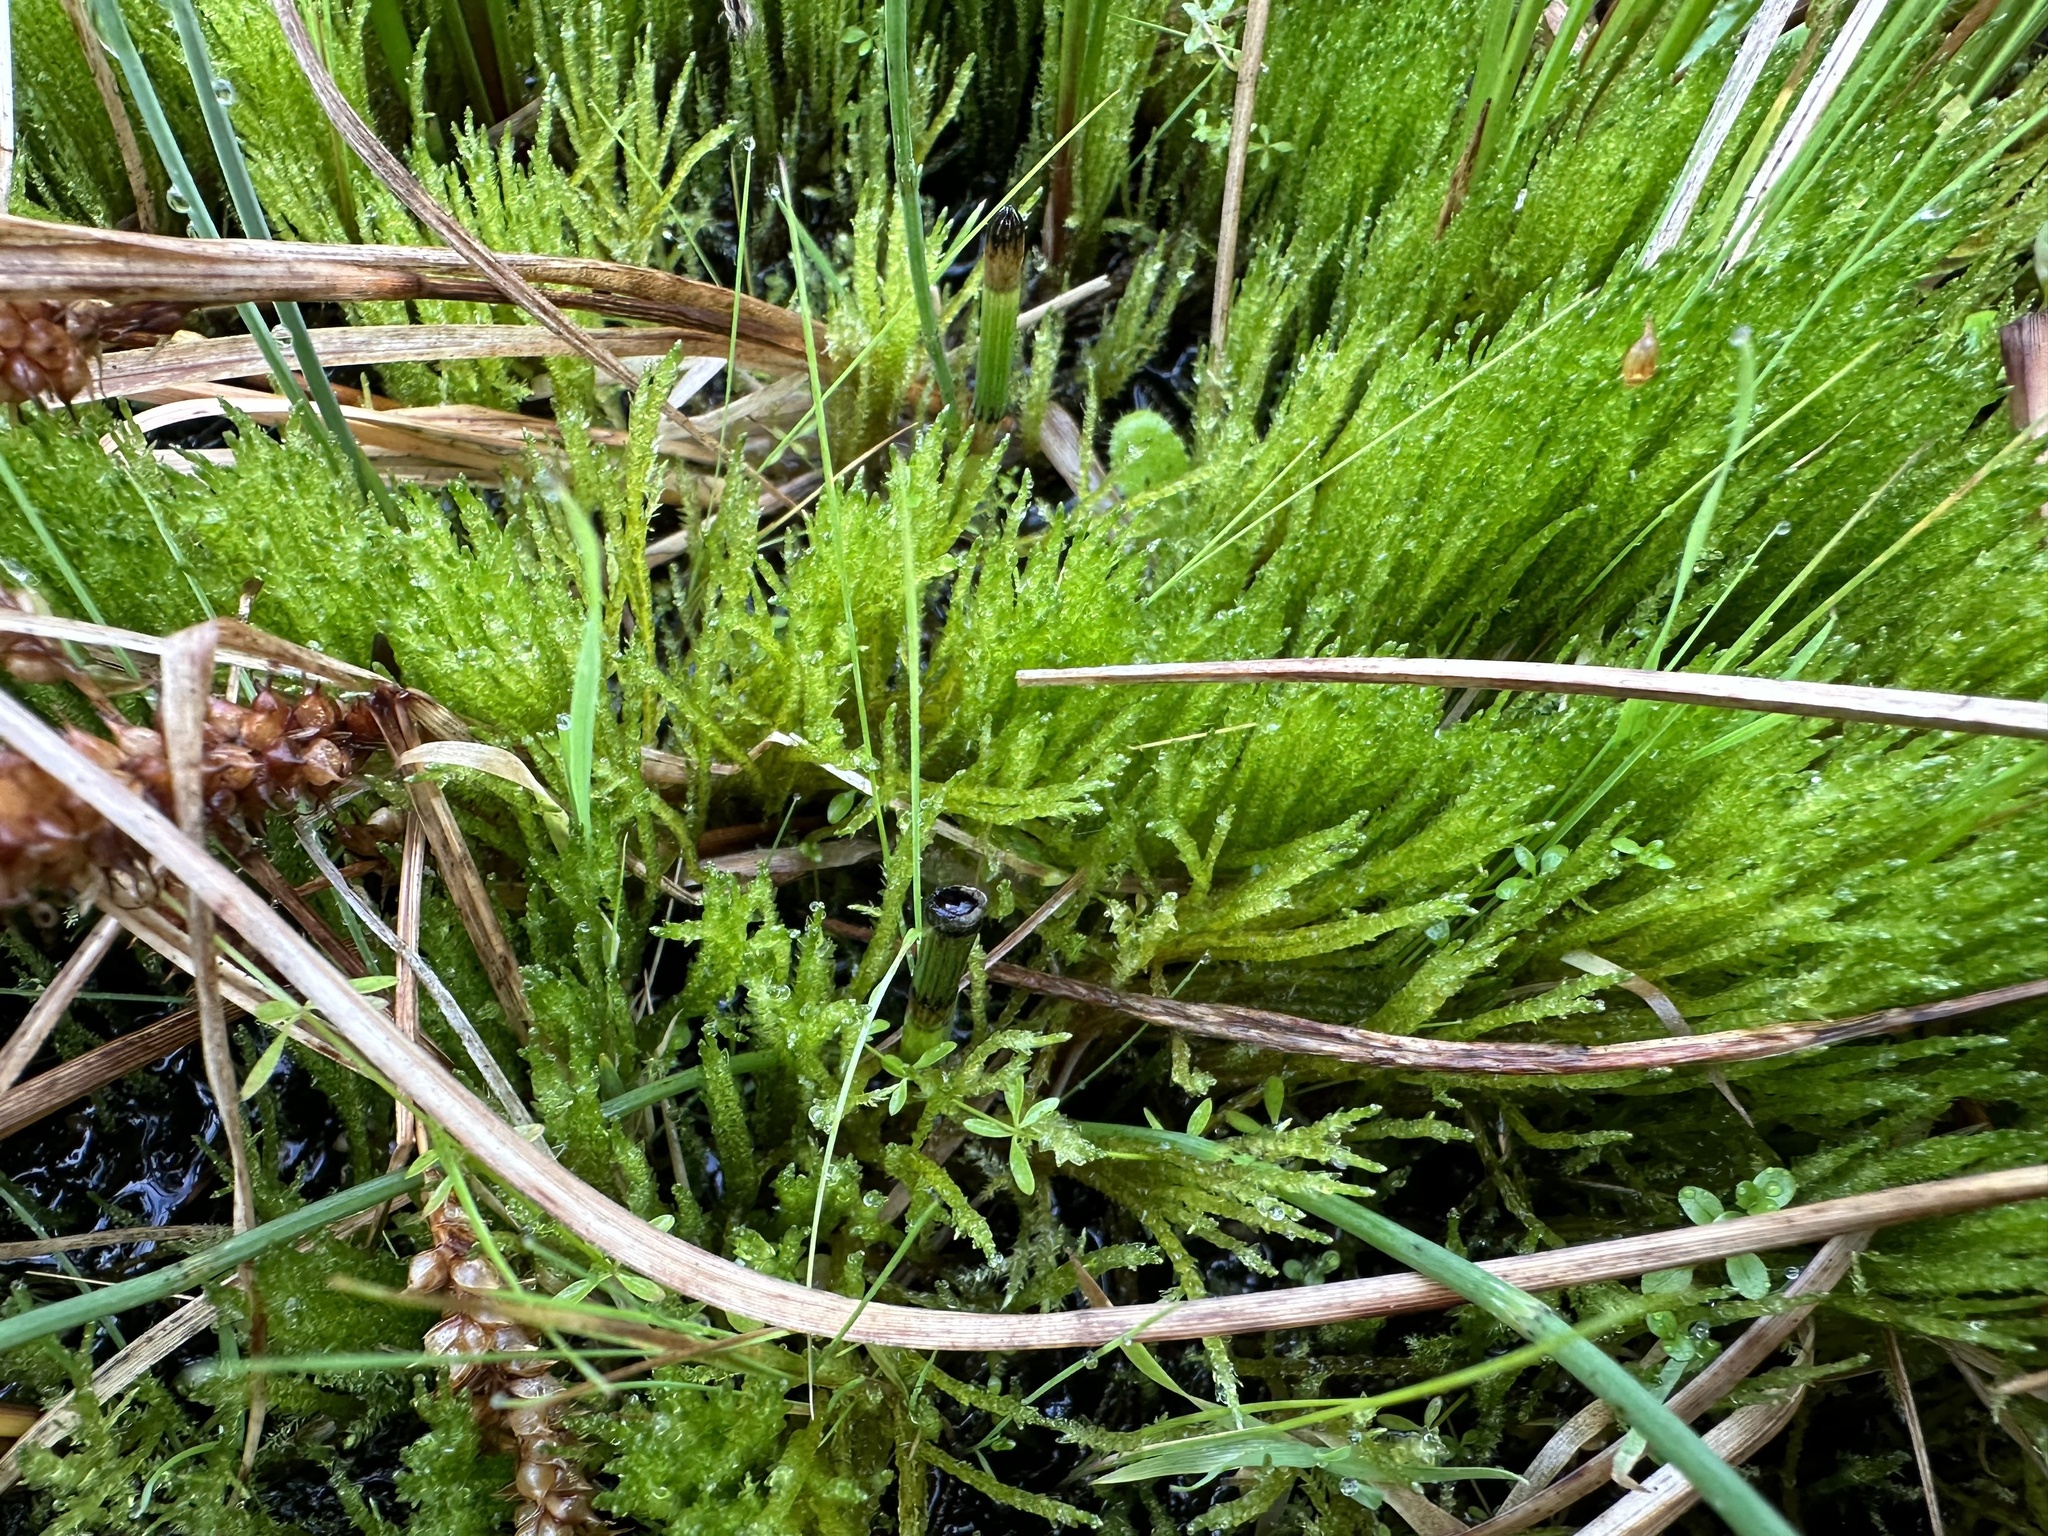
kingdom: Plantae
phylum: Bryophyta
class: Bryopsida
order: Hypnales
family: Calliergonaceae
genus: Straminergon
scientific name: Straminergon stramineum
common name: Straw moss
